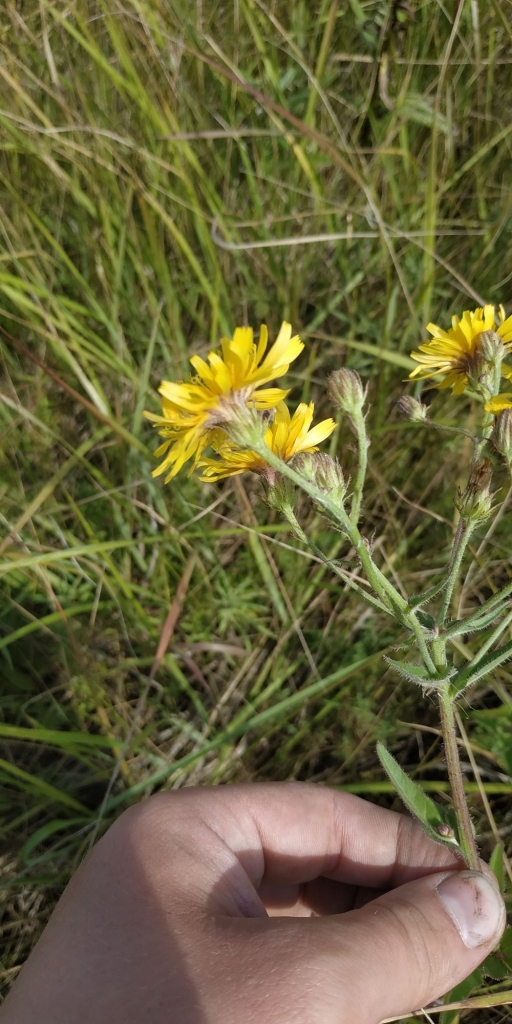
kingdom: Plantae
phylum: Tracheophyta
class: Magnoliopsida
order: Asterales
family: Asteraceae
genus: Picris
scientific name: Picris hieracioides
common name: Hawkweed oxtongue
